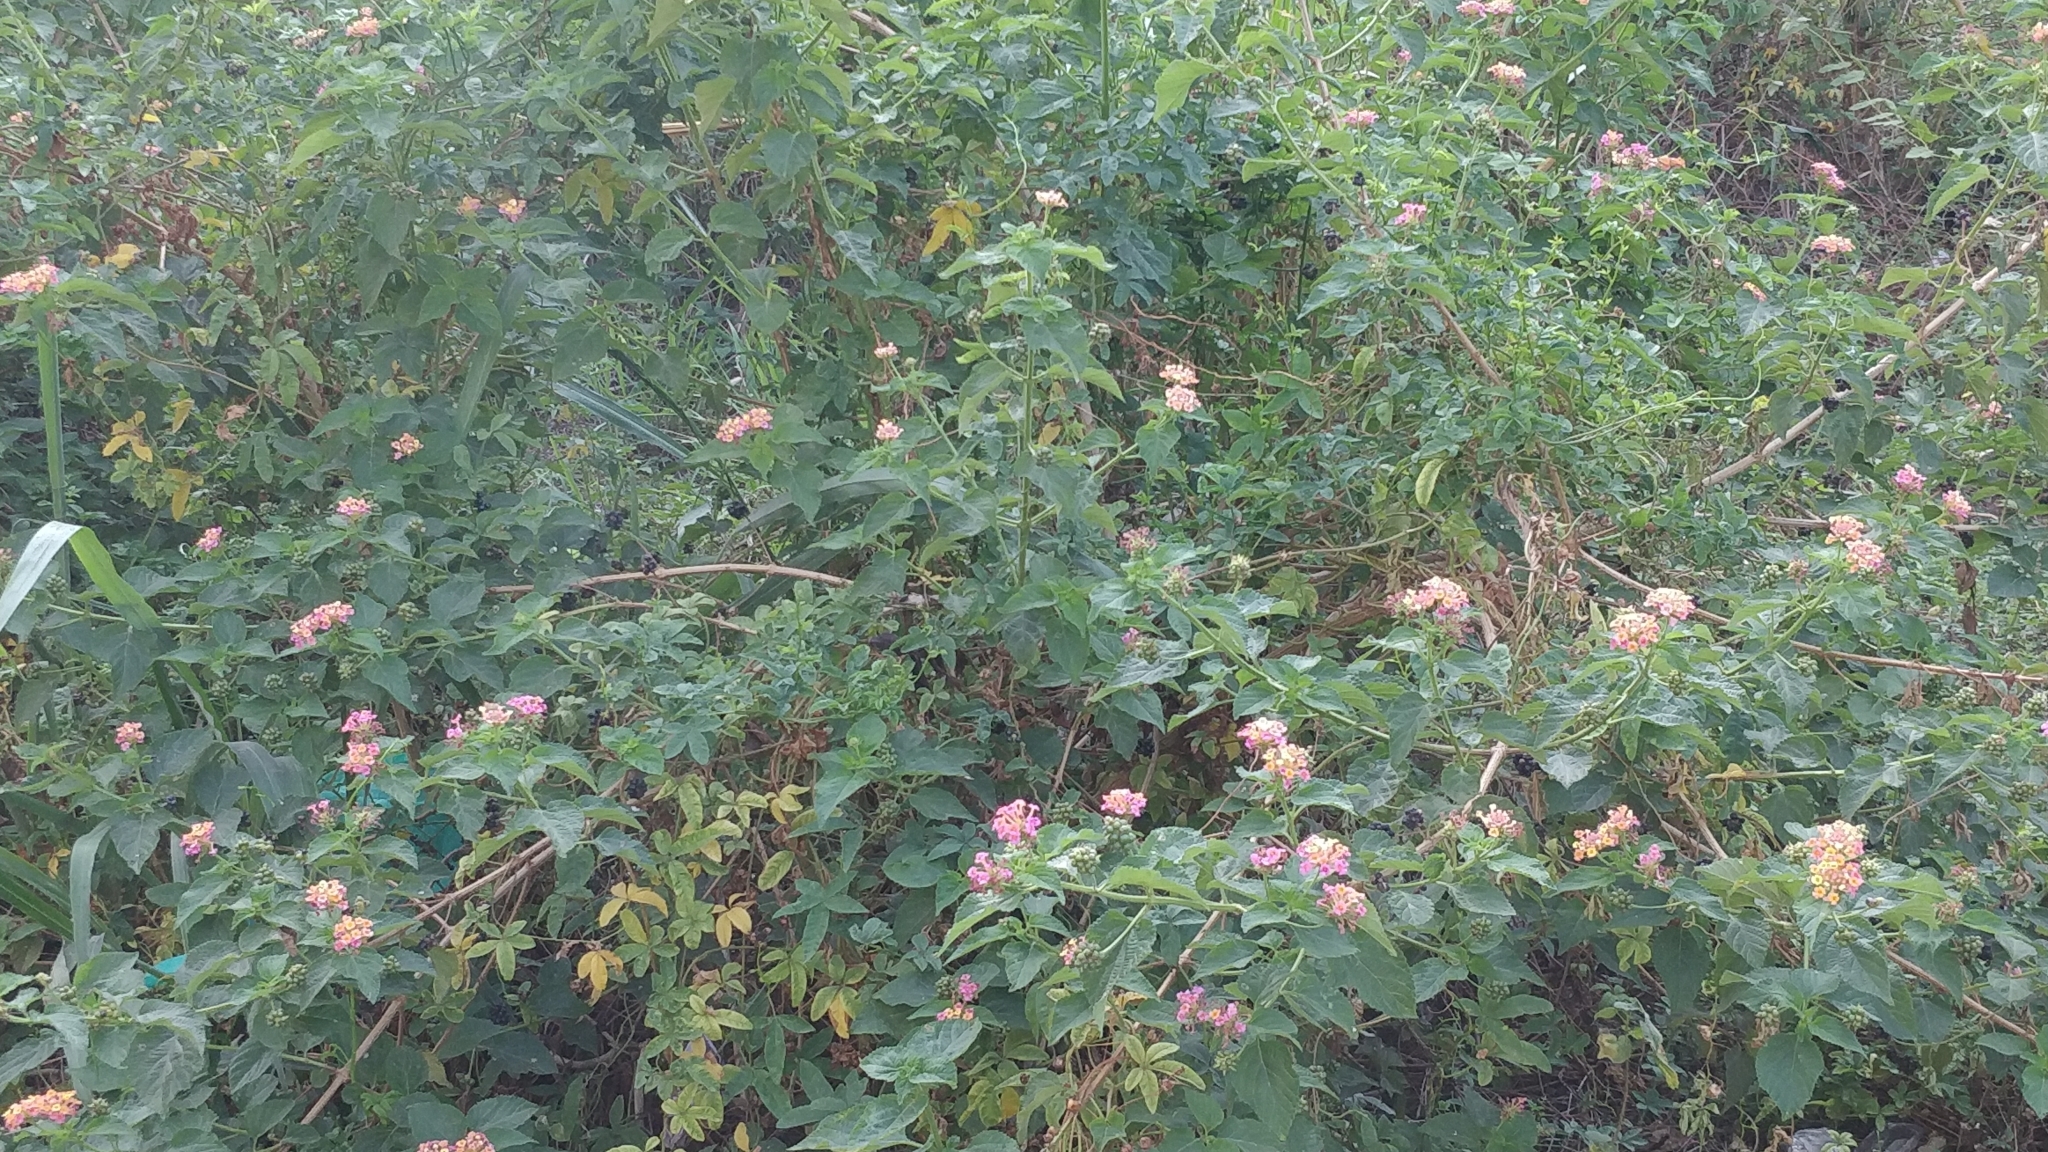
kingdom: Plantae
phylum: Tracheophyta
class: Magnoliopsida
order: Lamiales
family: Verbenaceae
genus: Lantana
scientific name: Lantana camara
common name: Lantana
